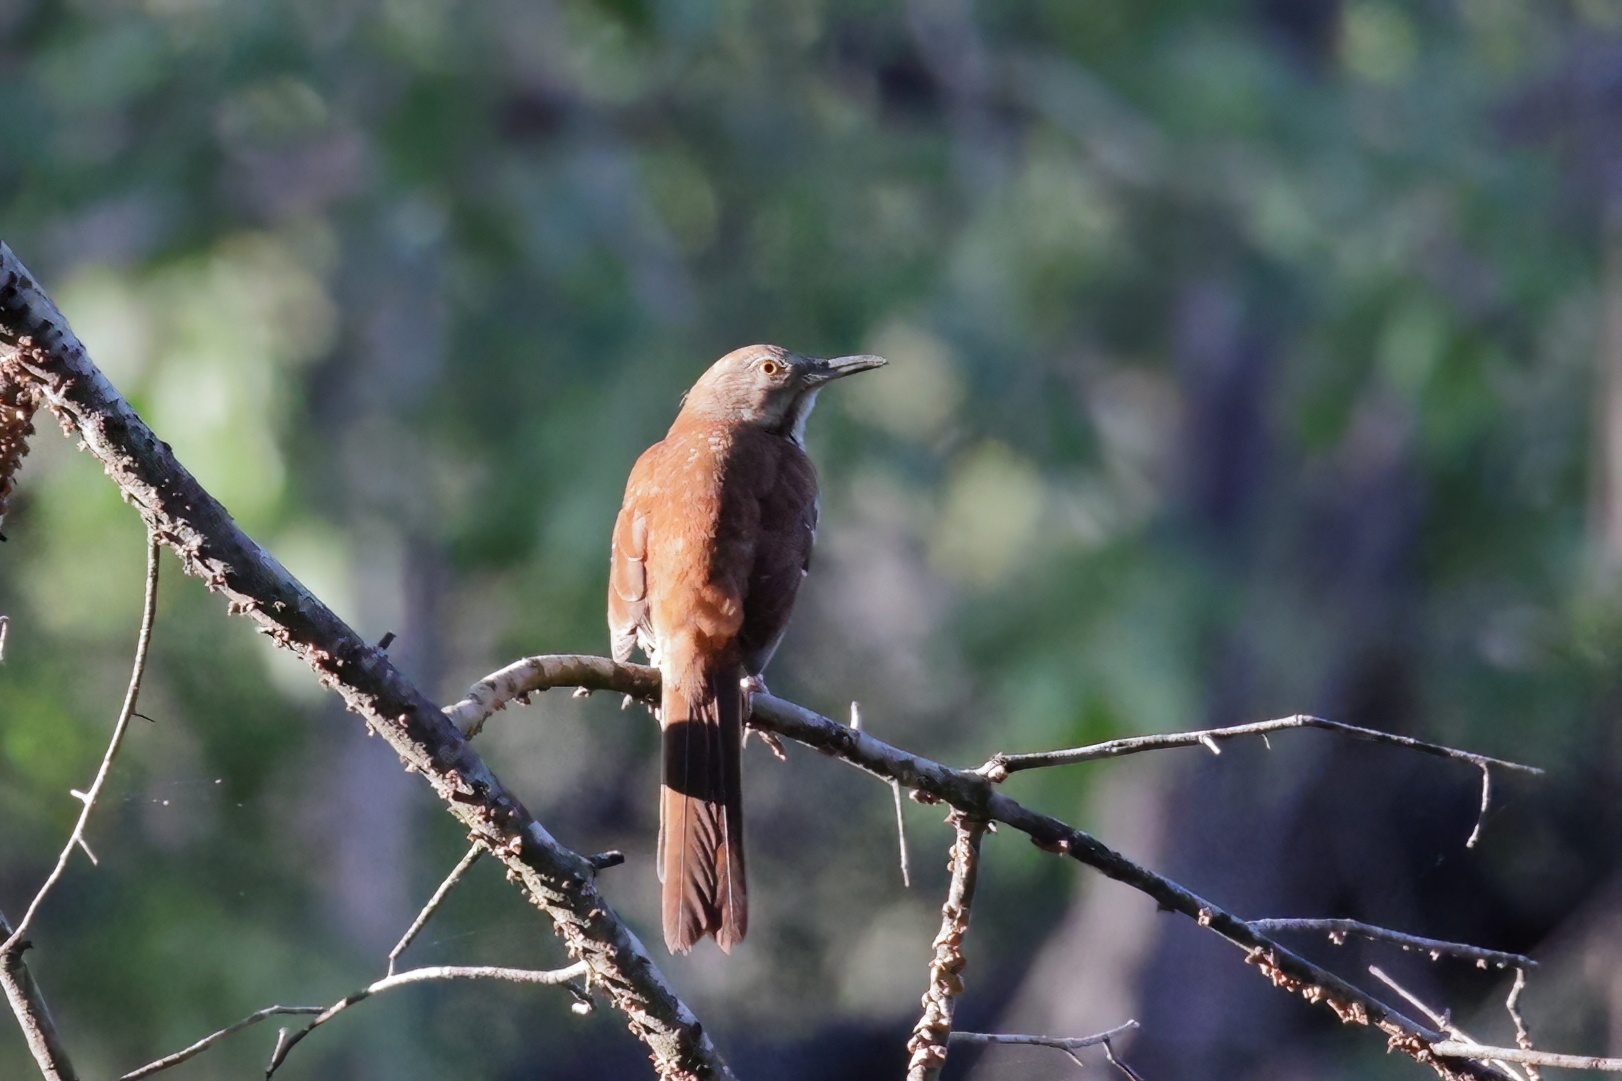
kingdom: Animalia
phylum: Chordata
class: Aves
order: Passeriformes
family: Mimidae
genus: Toxostoma
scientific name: Toxostoma rufum
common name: Brown thrasher
